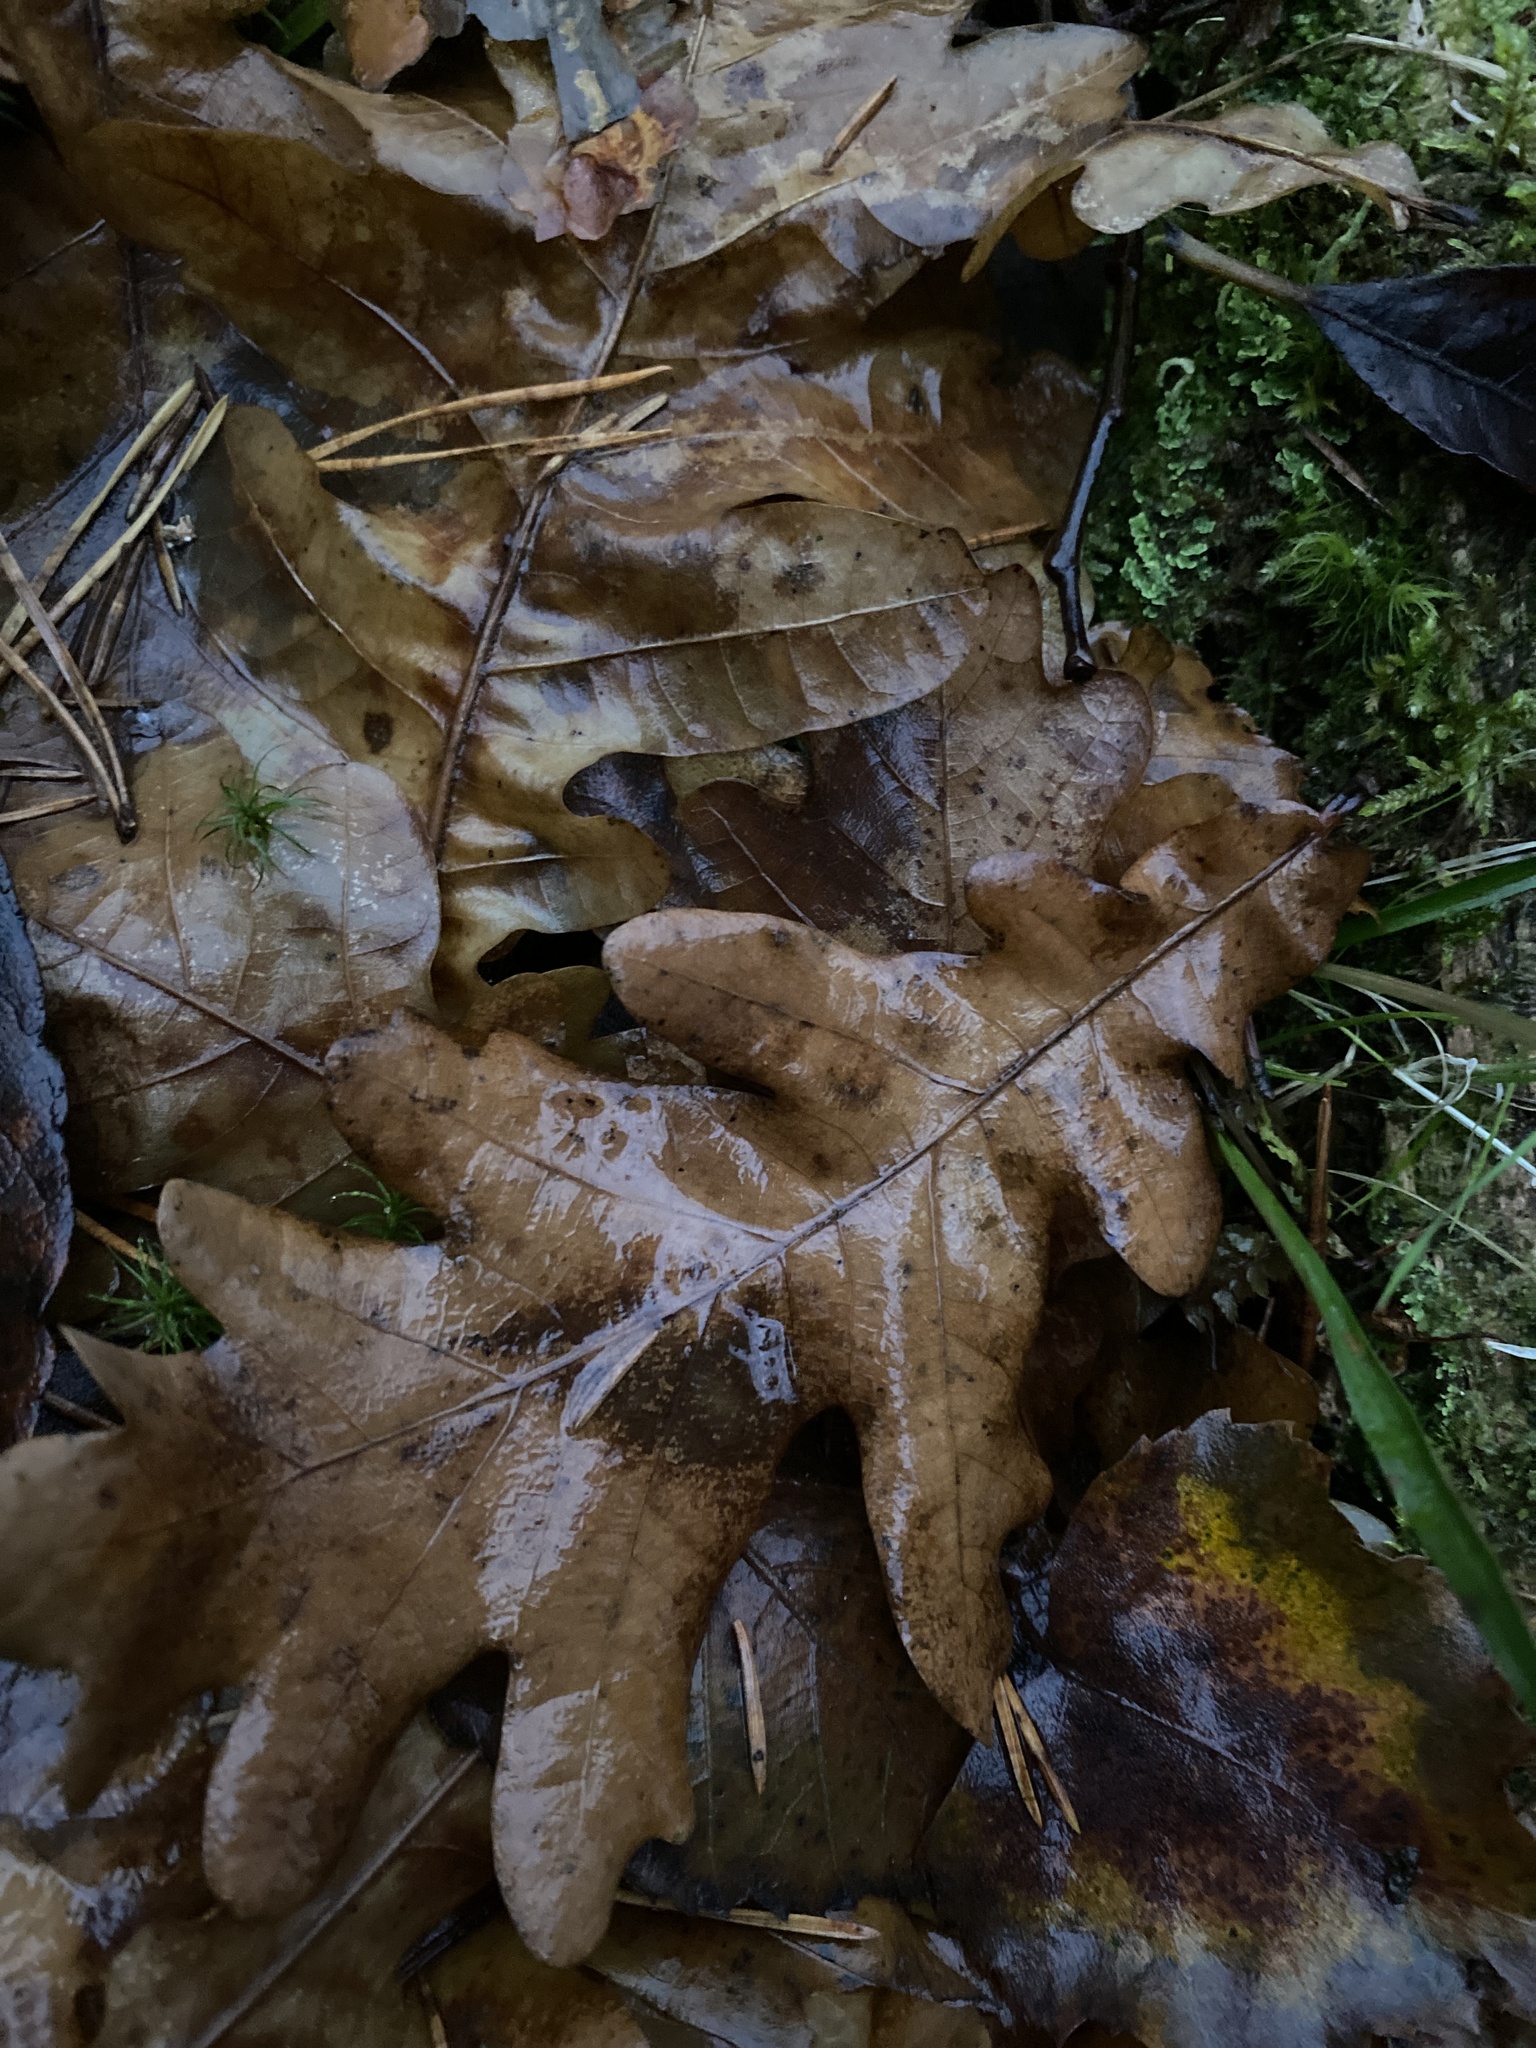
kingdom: Plantae
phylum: Tracheophyta
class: Magnoliopsida
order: Fagales
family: Fagaceae
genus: Quercus
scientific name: Quercus robur
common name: Pedunculate oak
